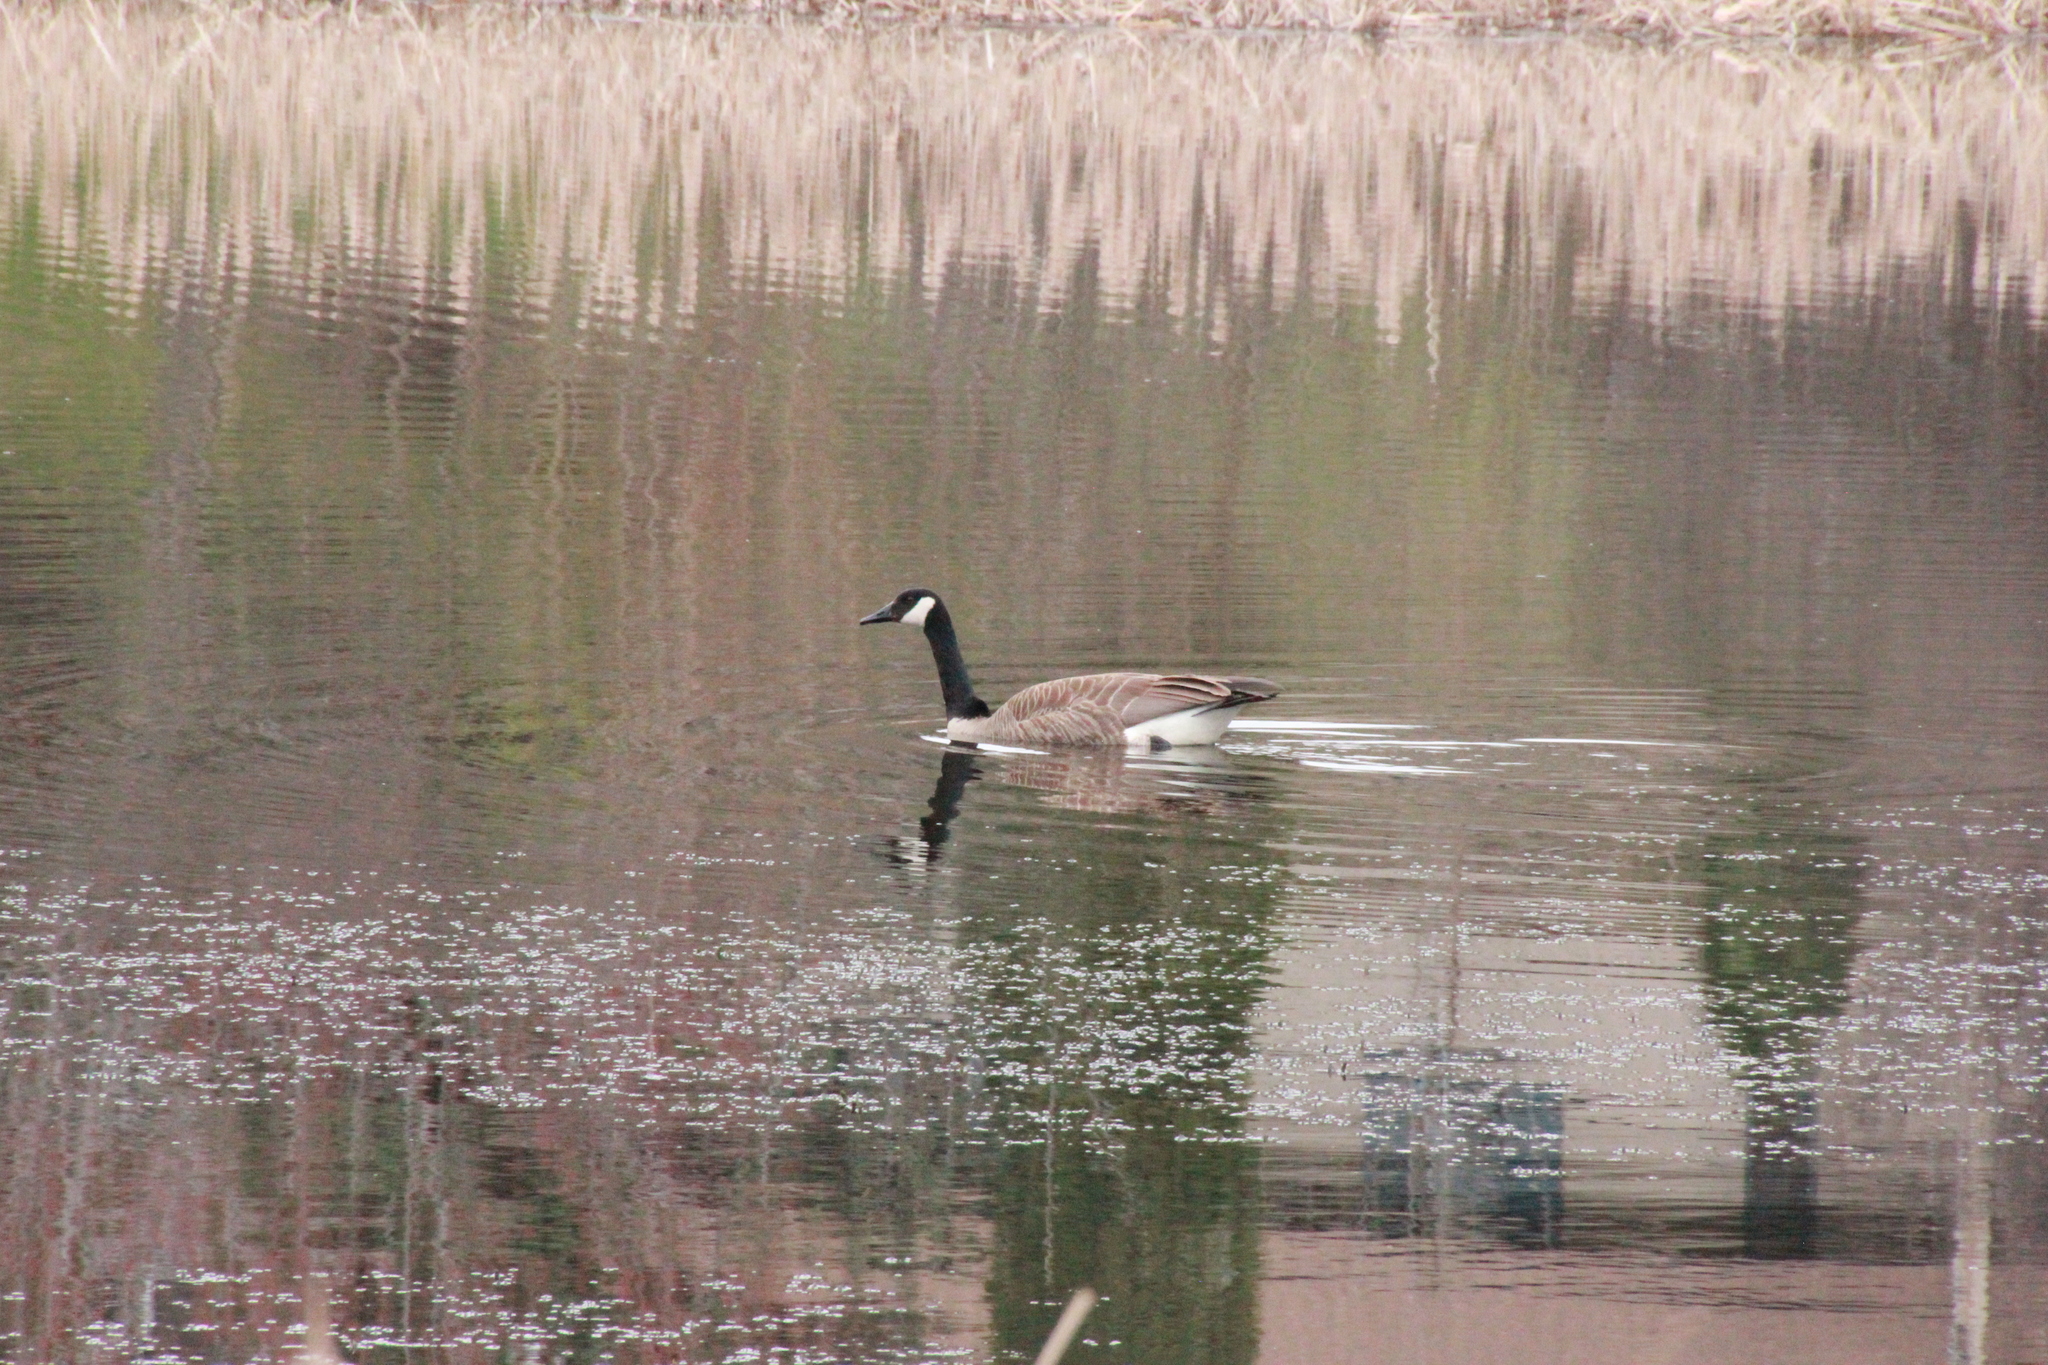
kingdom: Animalia
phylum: Chordata
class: Aves
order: Anseriformes
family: Anatidae
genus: Branta
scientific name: Branta canadensis
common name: Canada goose
